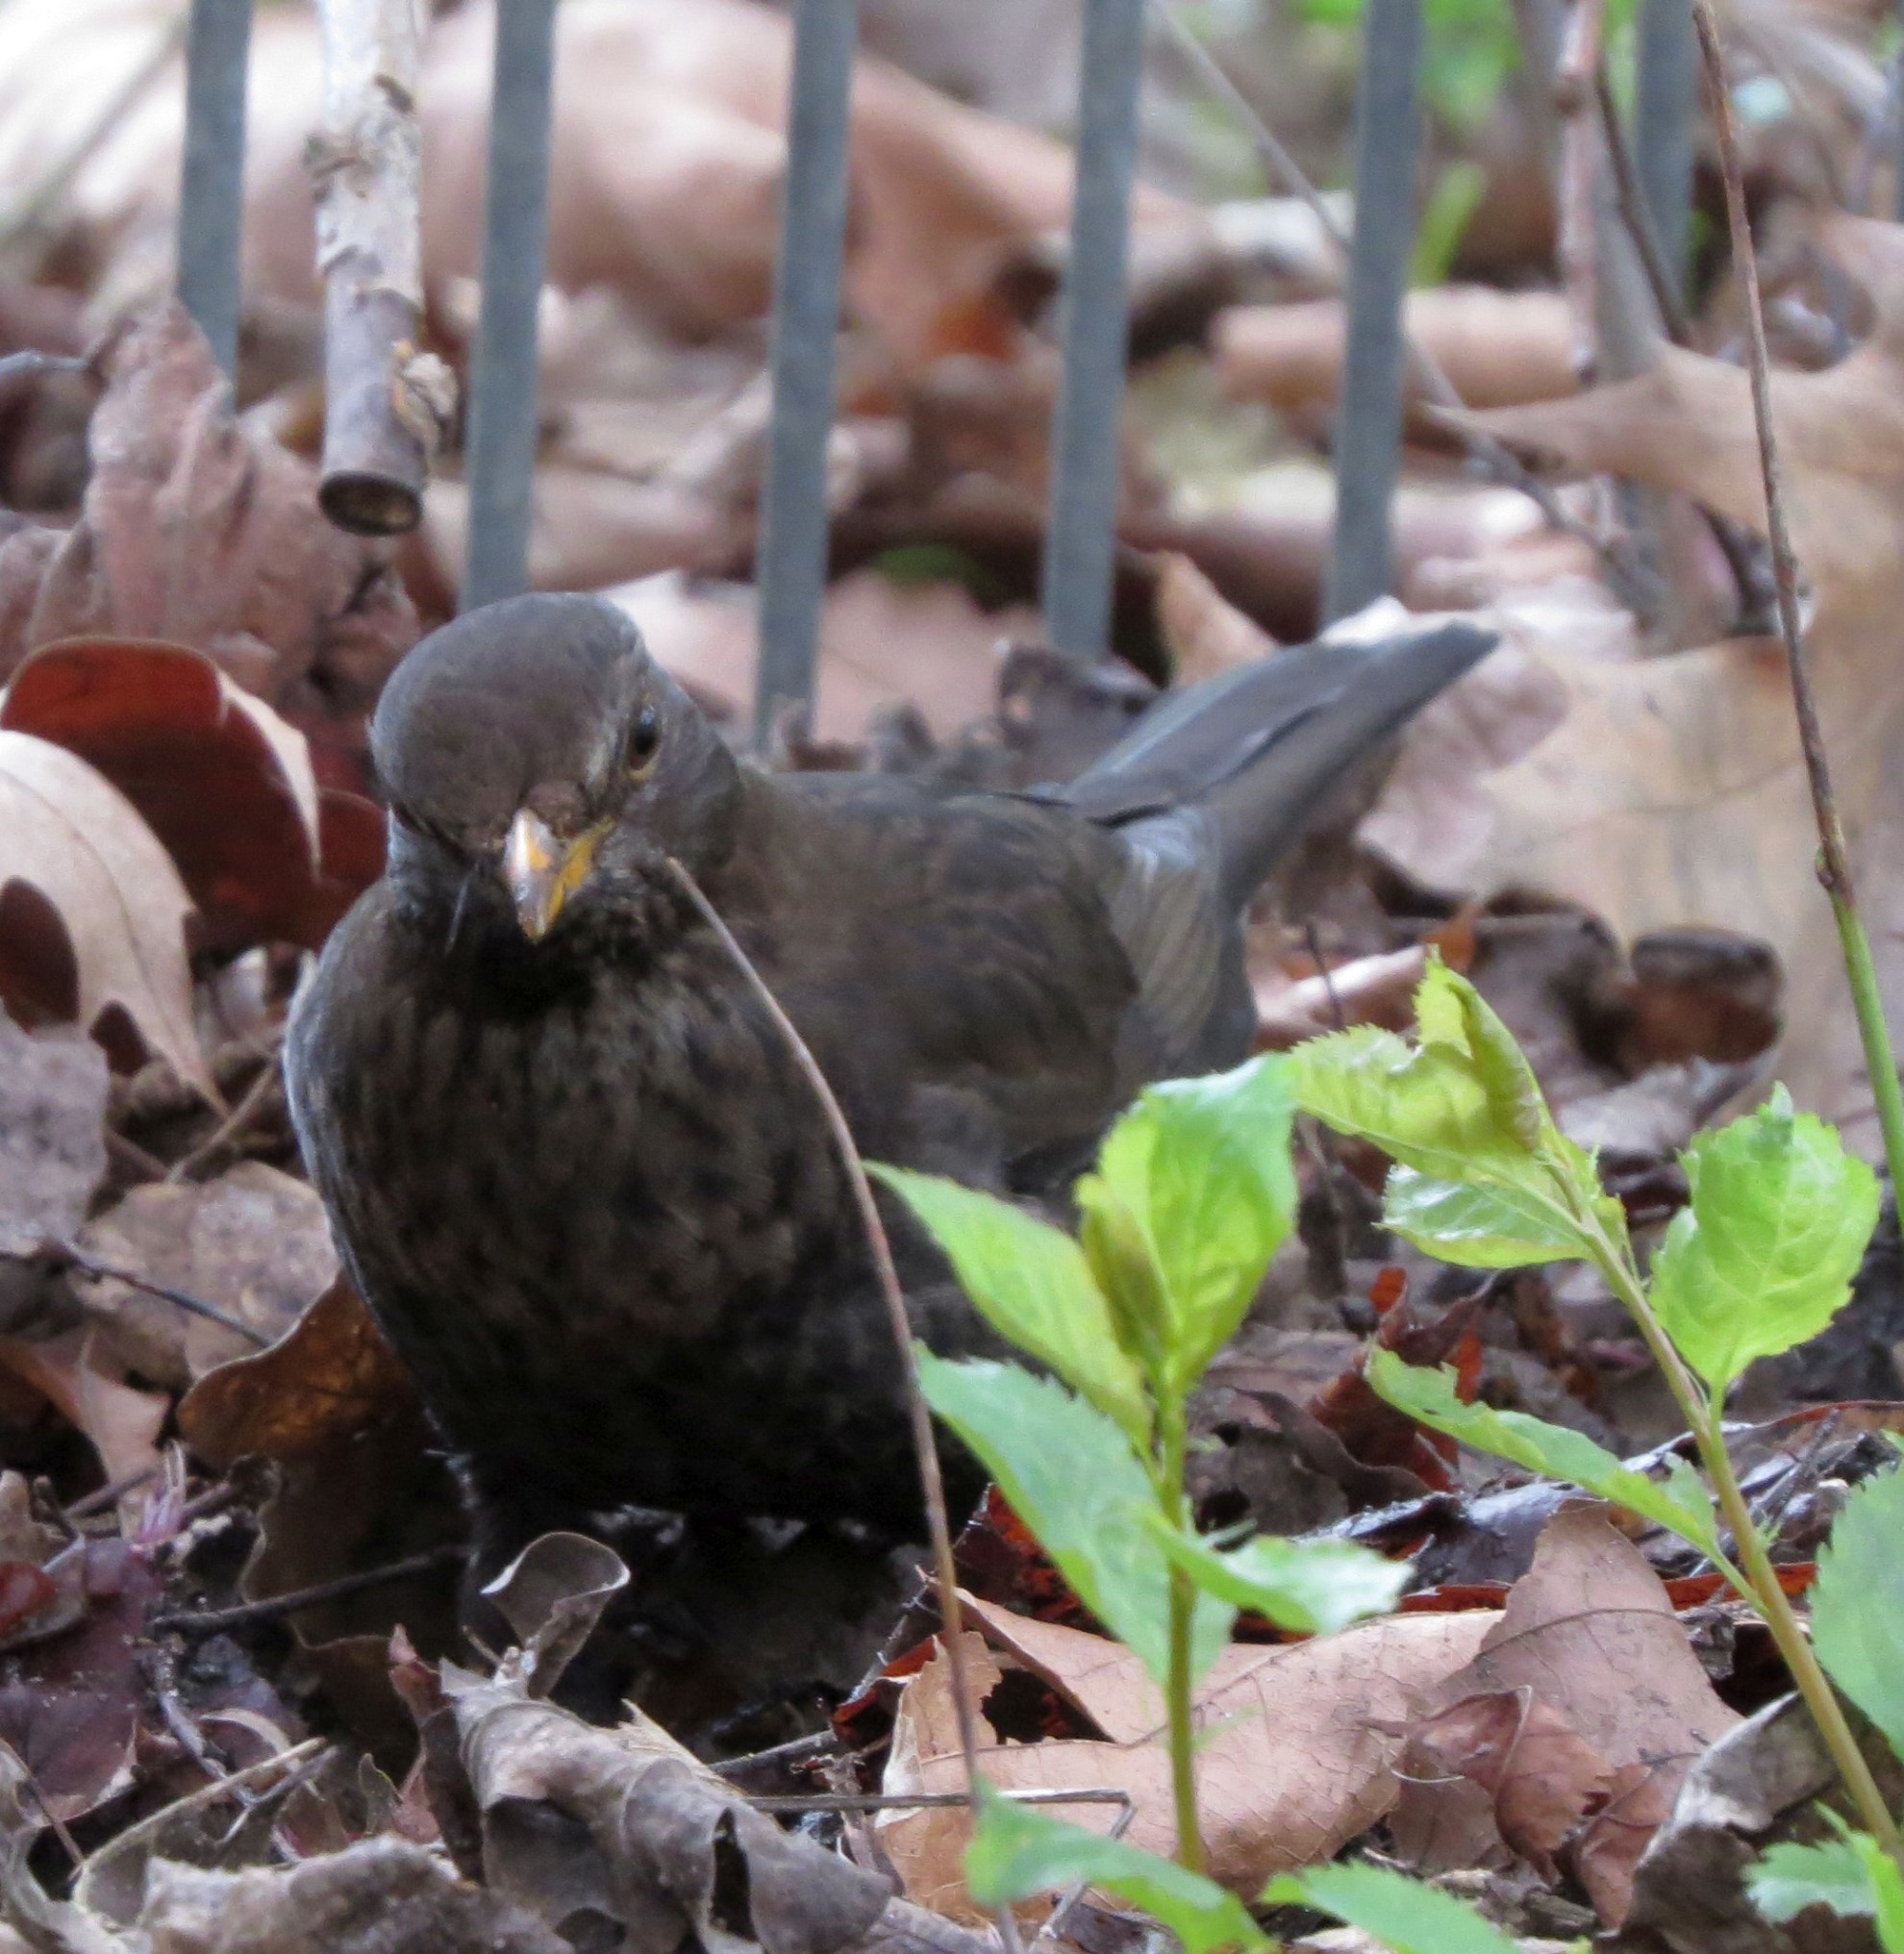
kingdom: Animalia
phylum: Chordata
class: Aves
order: Passeriformes
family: Turdidae
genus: Turdus
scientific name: Turdus merula
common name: Common blackbird
